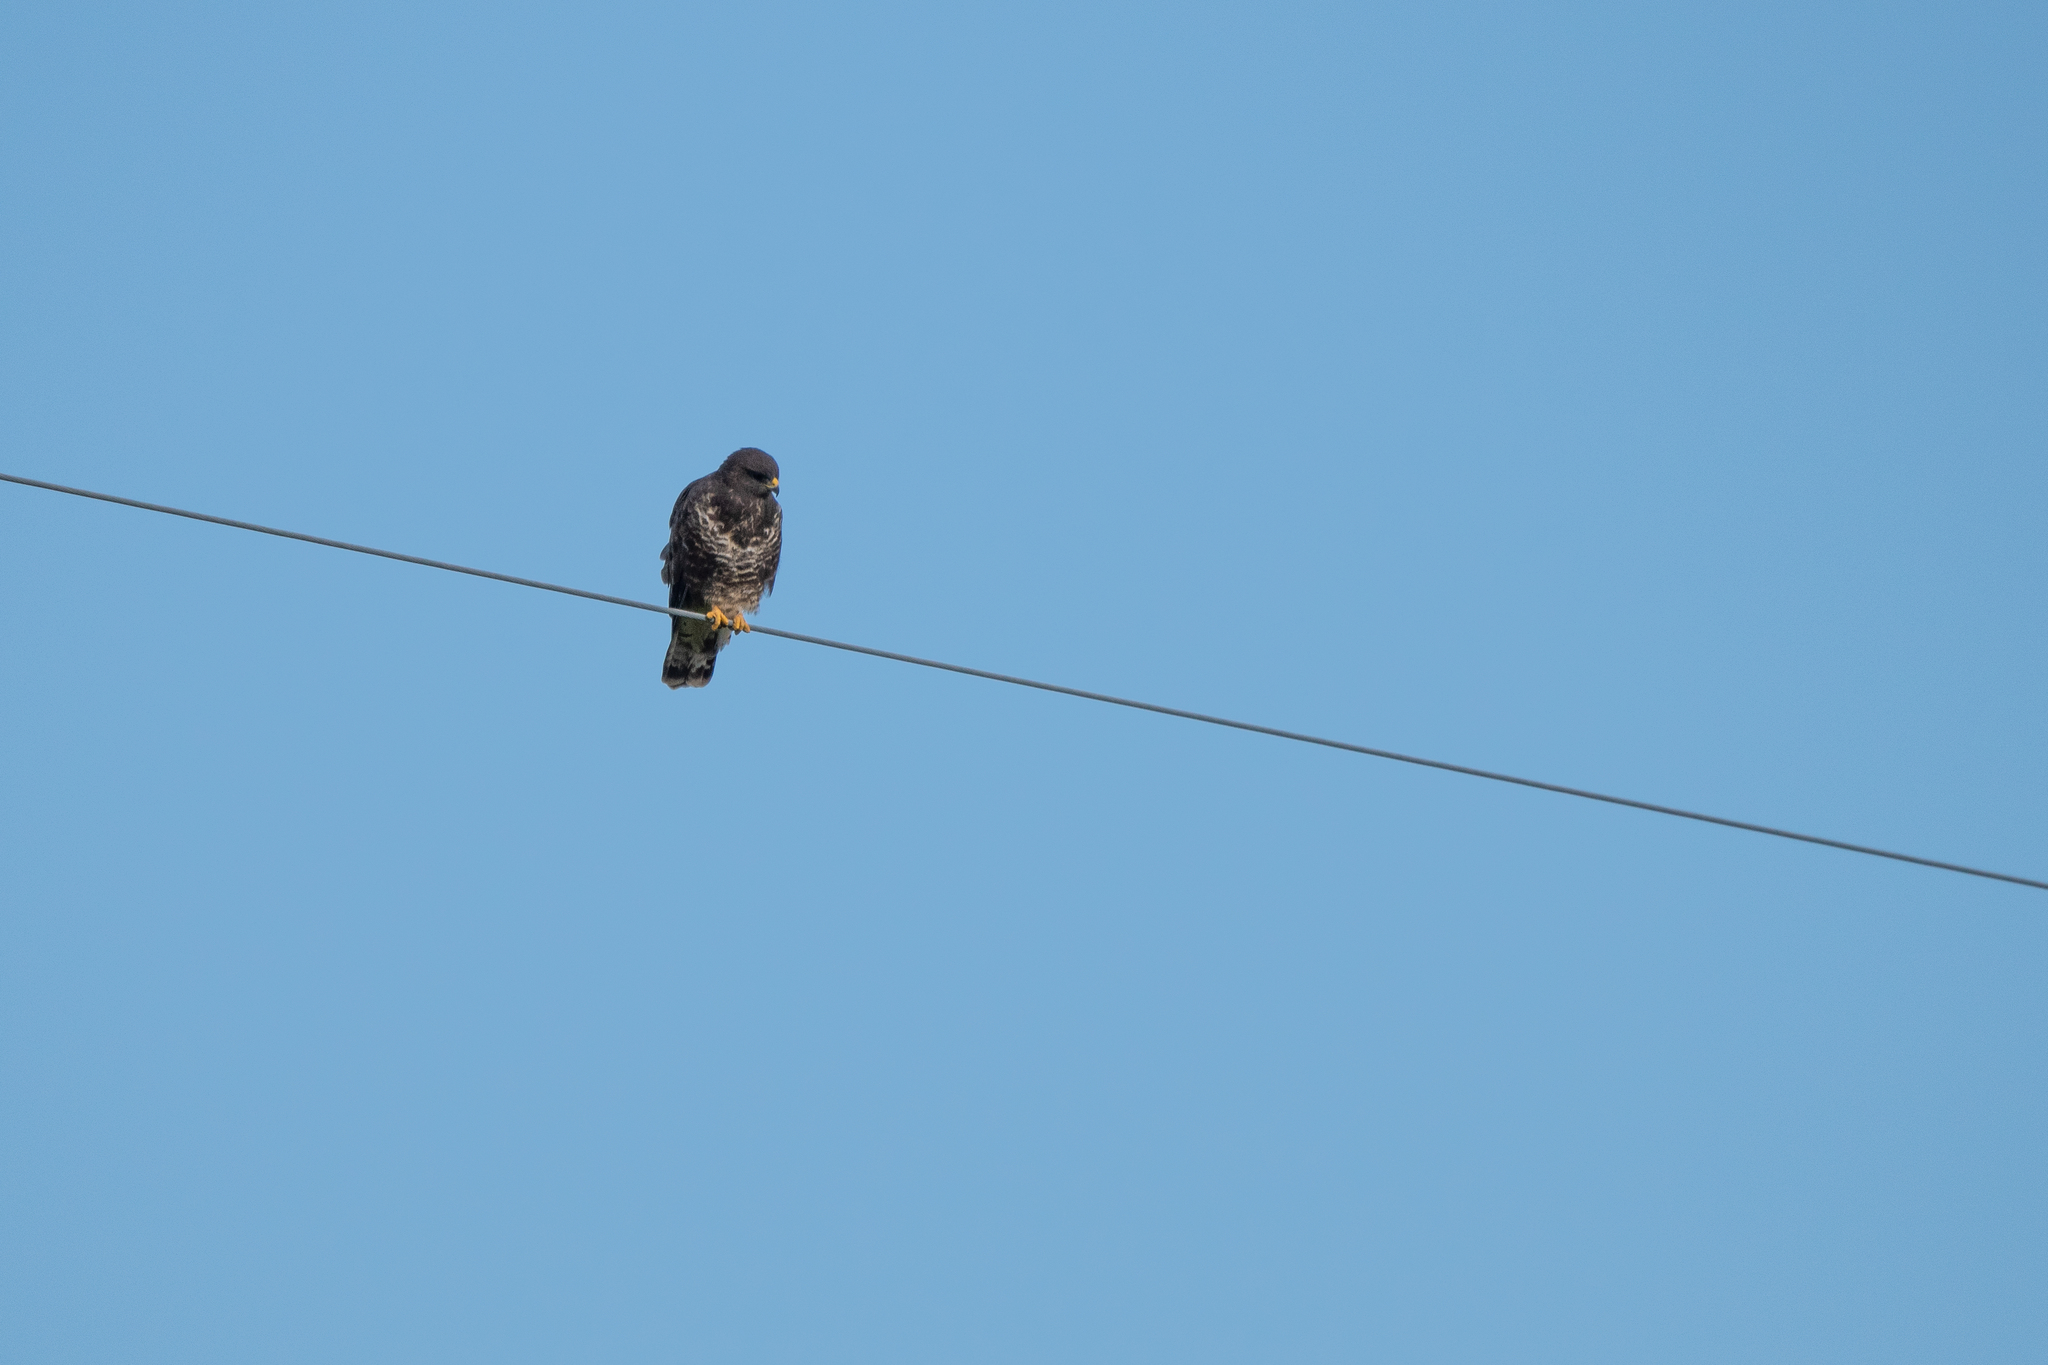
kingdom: Animalia
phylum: Chordata
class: Aves
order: Accipitriformes
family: Accipitridae
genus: Buteo
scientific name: Buteo buteo
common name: Common buzzard
